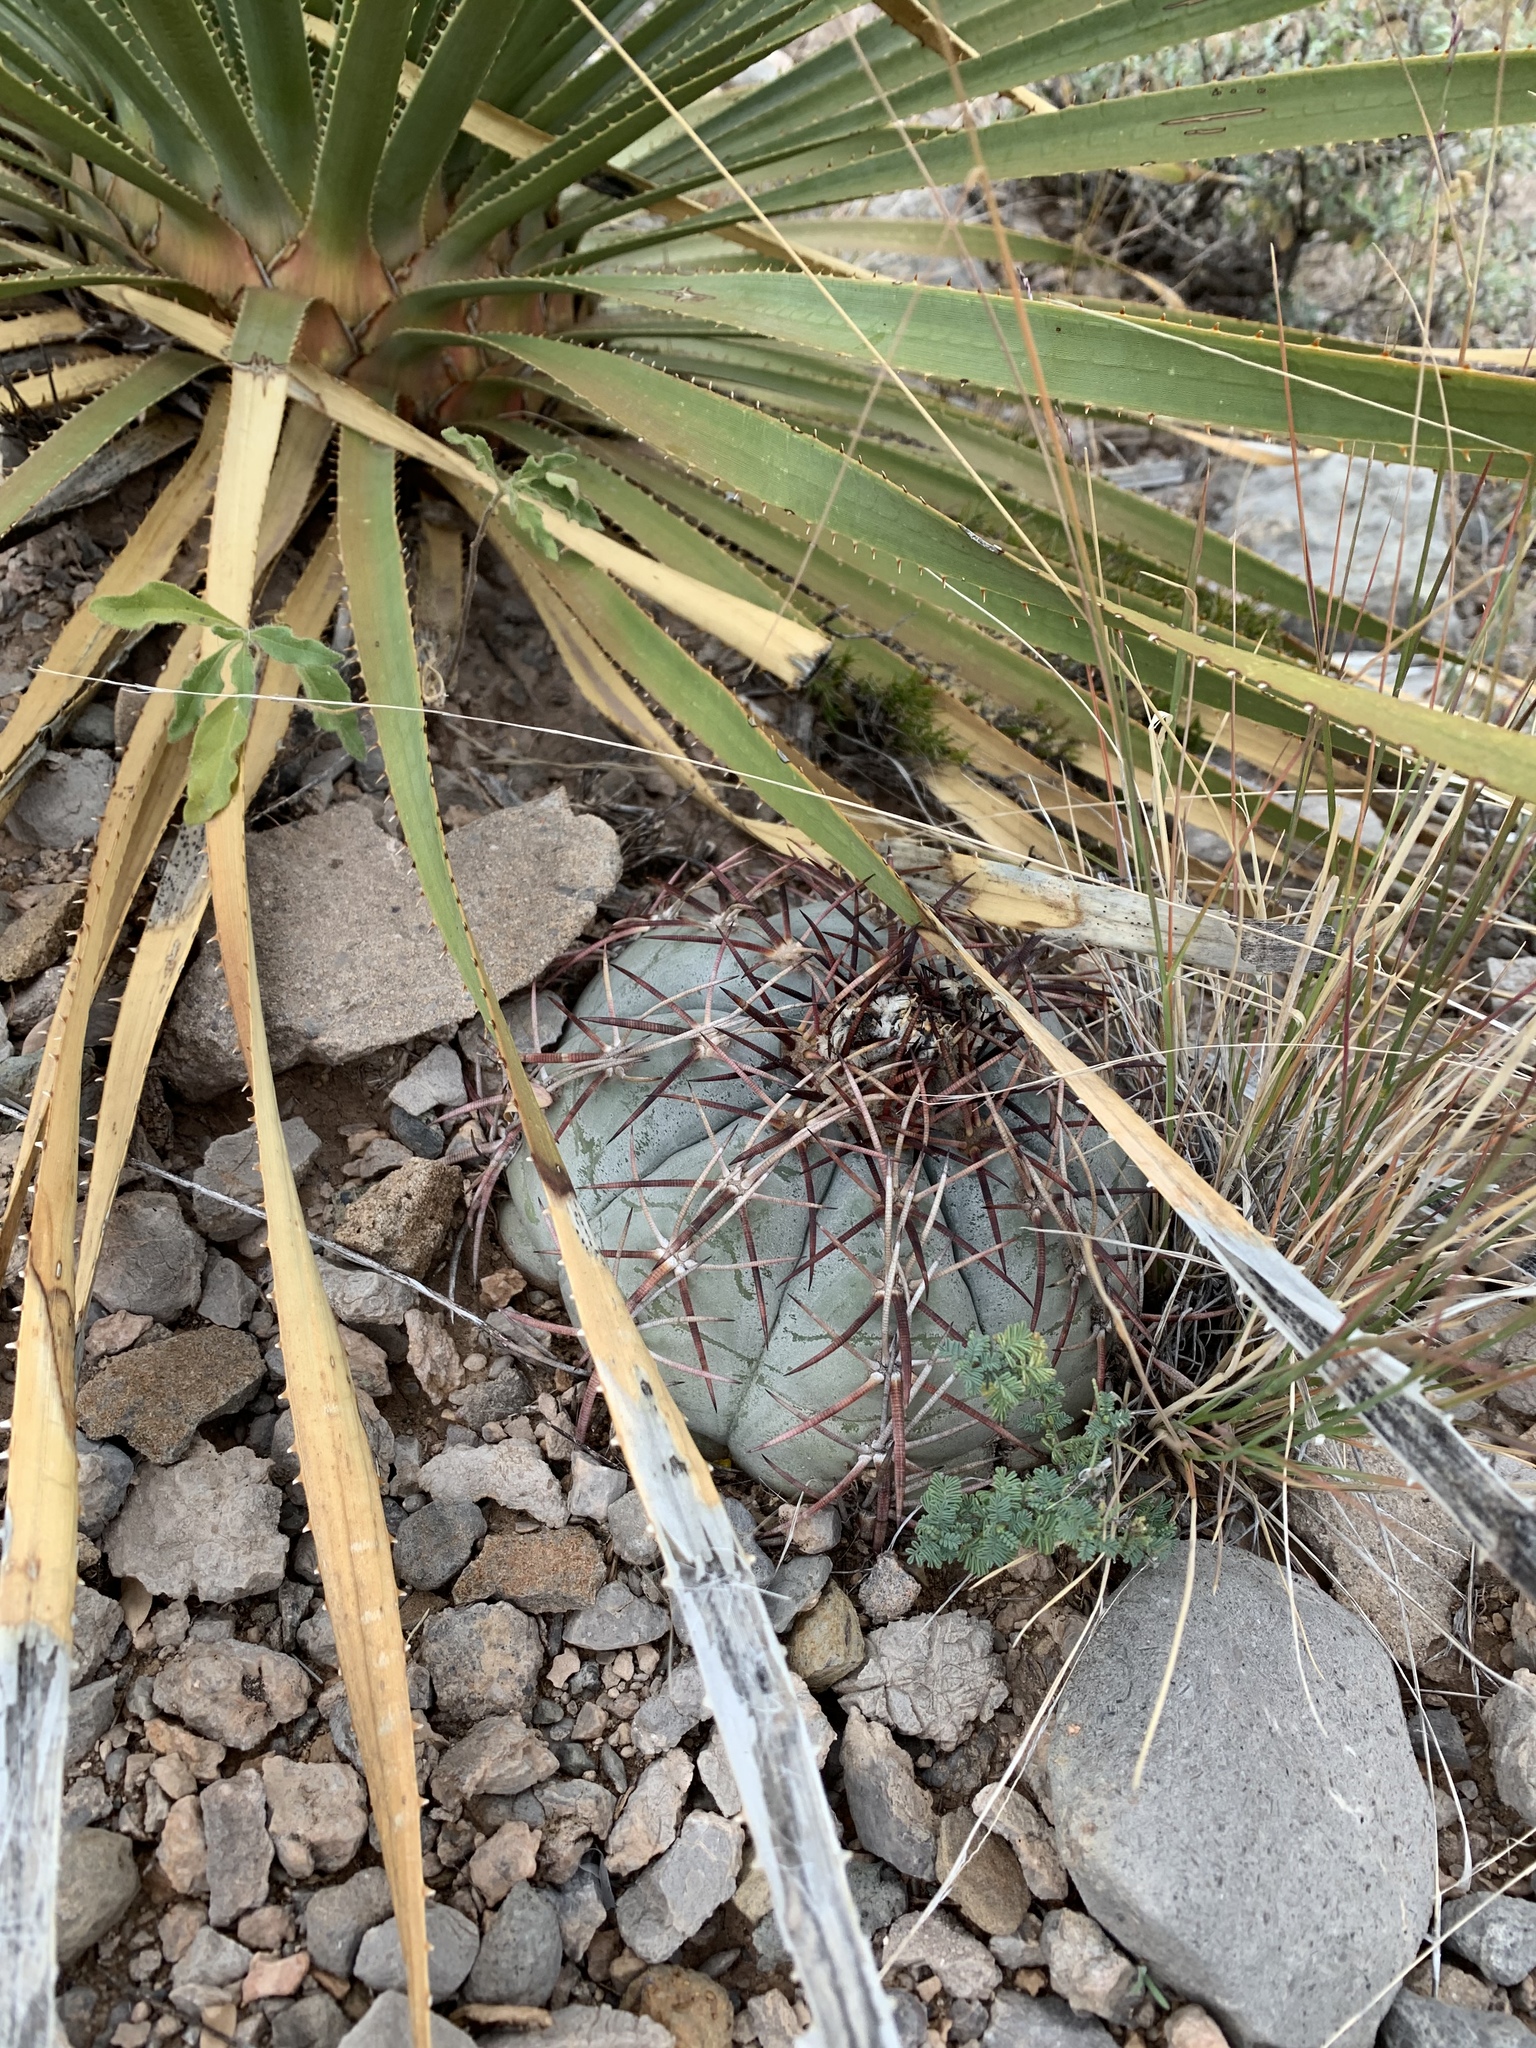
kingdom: Plantae
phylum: Tracheophyta
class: Magnoliopsida
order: Caryophyllales
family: Cactaceae
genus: Echinocactus
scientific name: Echinocactus horizonthalonius
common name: Devilshead
